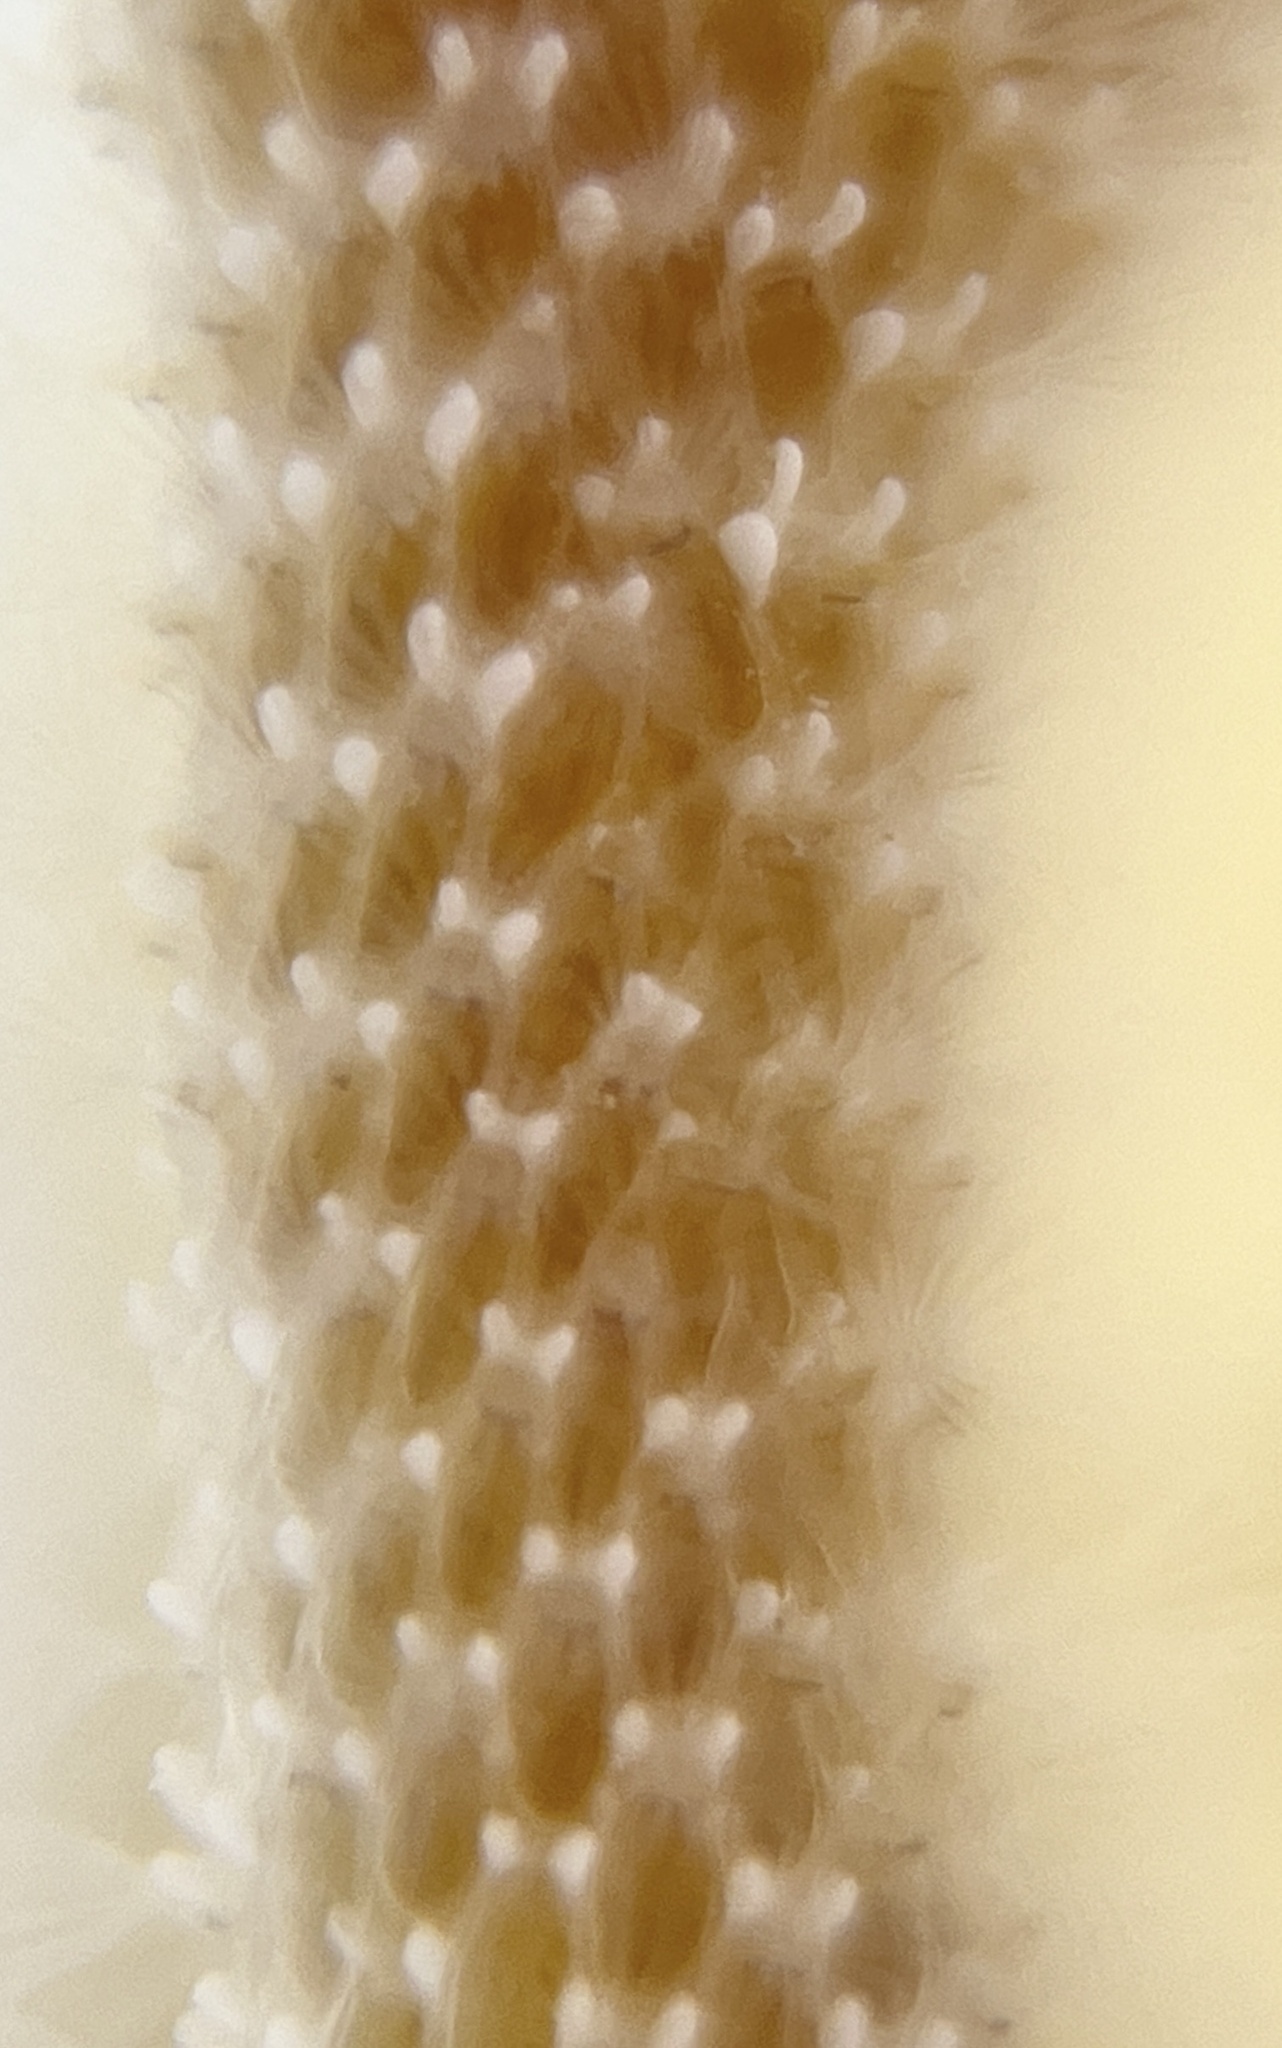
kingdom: Animalia
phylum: Bryozoa
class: Gymnolaemata
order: Cheilostomatida
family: Membraniporidae
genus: Jellyella
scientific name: Jellyella tuberculata
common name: Sargassum bryozoan
